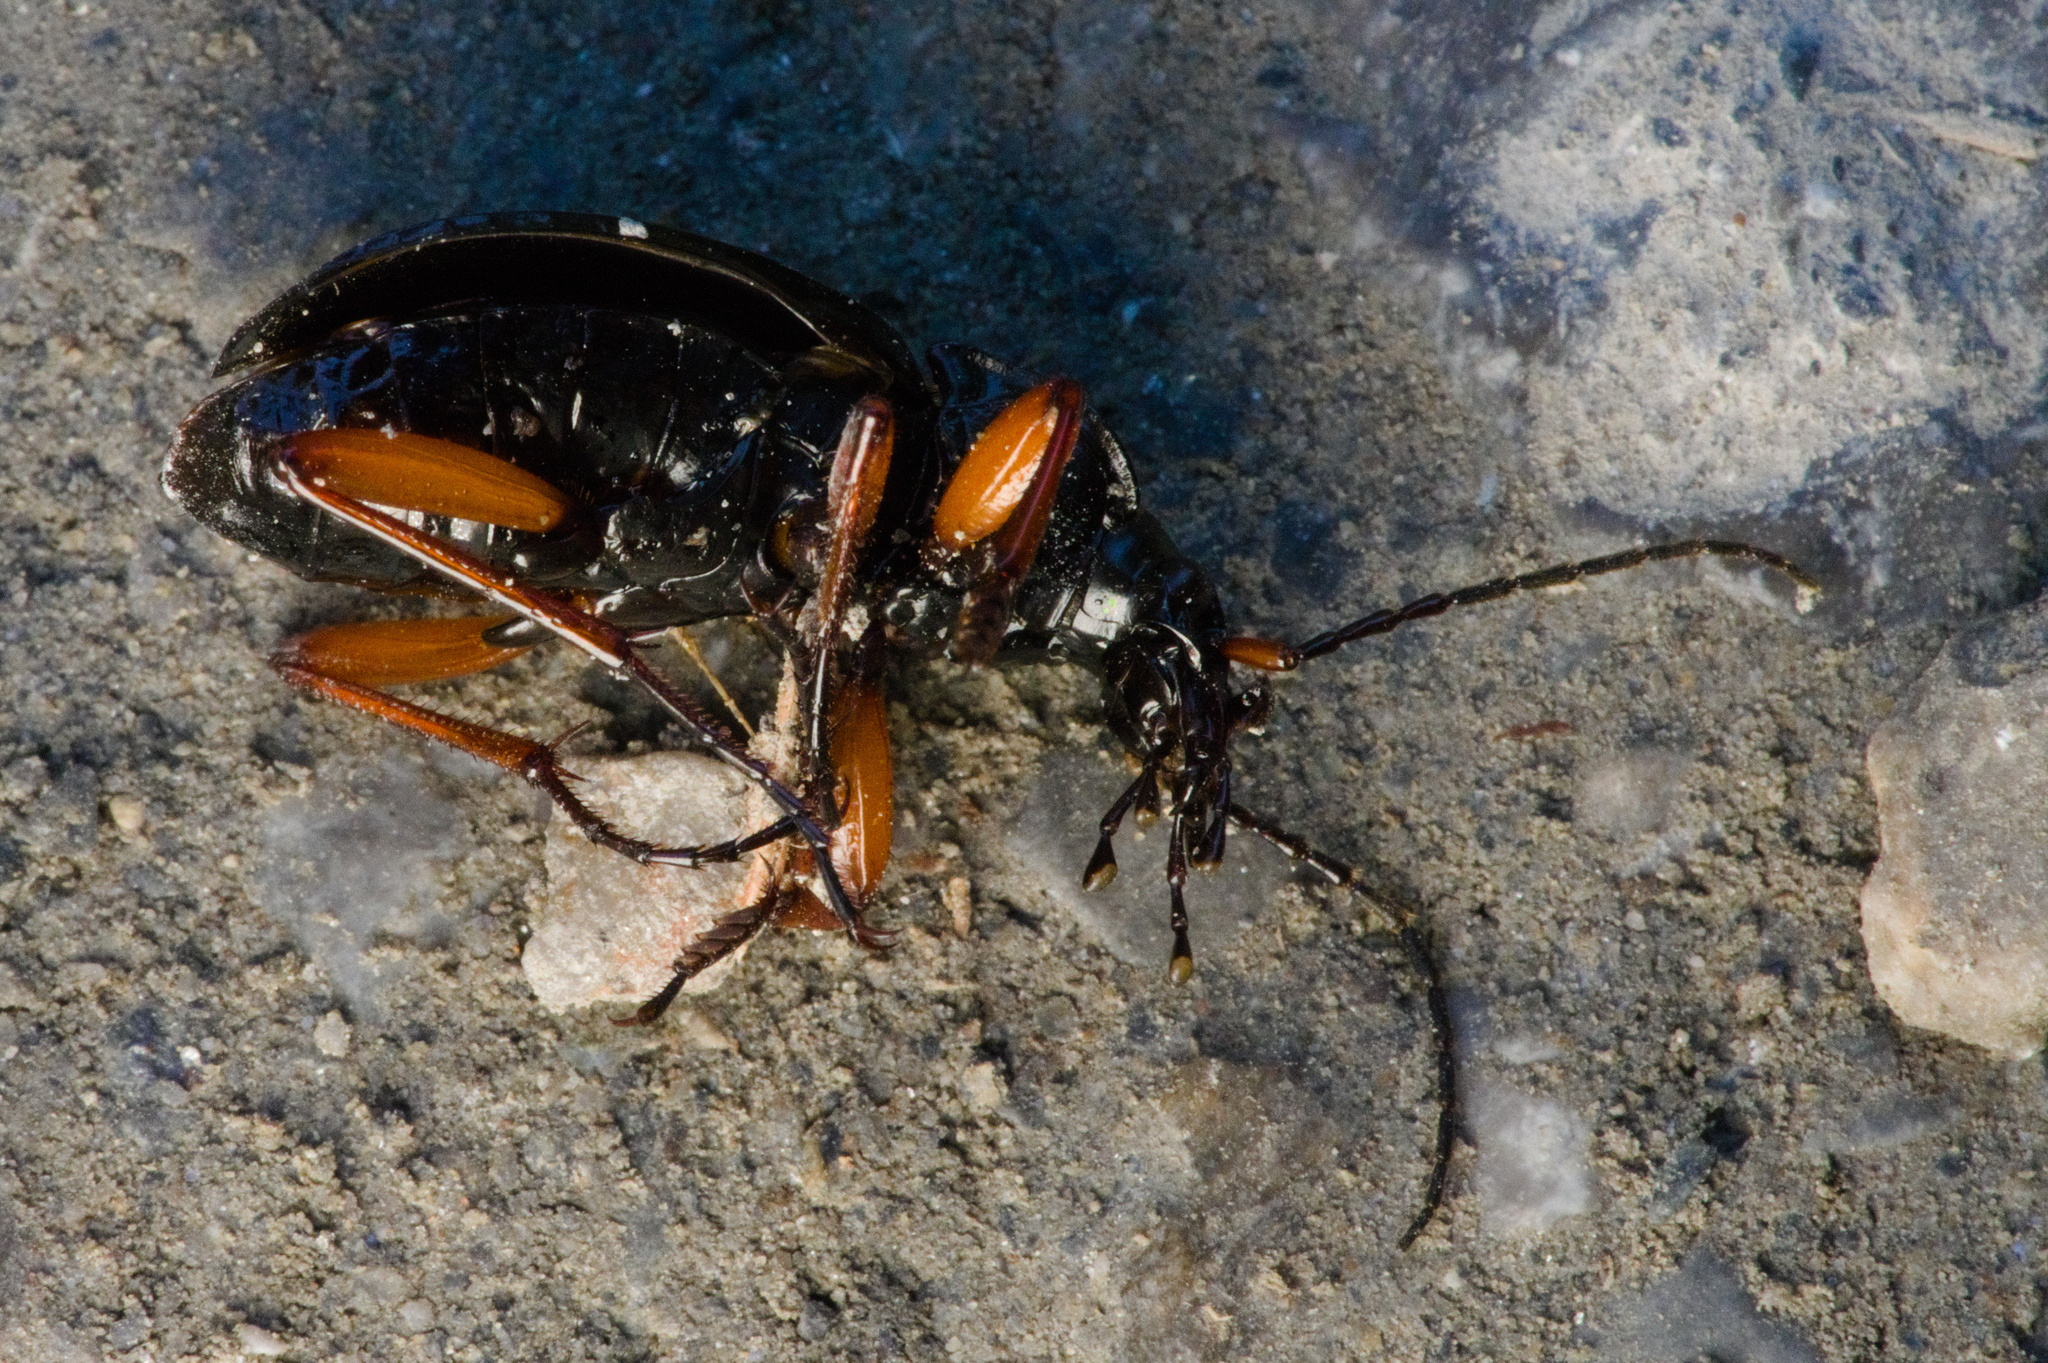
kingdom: Animalia
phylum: Arthropoda
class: Insecta
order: Coleoptera
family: Carabidae
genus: Carabus
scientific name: Carabus auronitens
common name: Carabus auronitens
